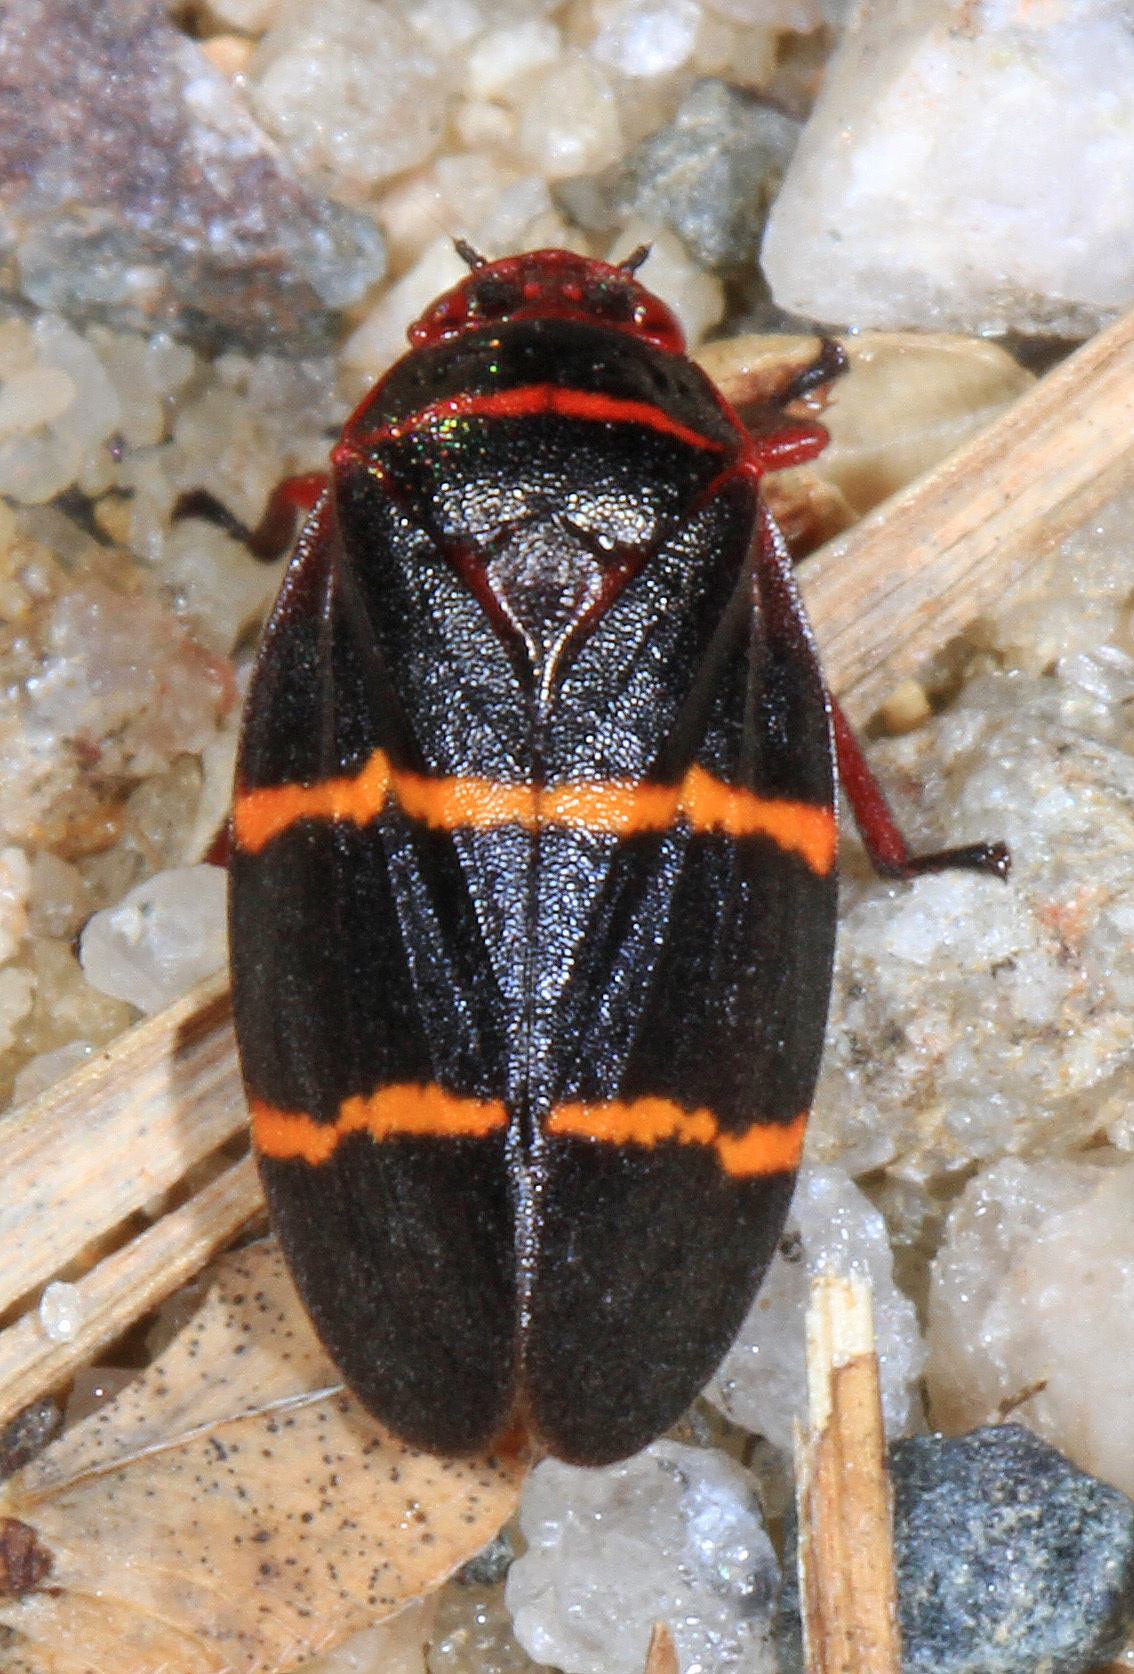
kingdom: Animalia
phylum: Arthropoda
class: Insecta
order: Hemiptera
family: Cercopidae
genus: Prosapia
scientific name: Prosapia bicincta
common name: Twolined spittlebug
